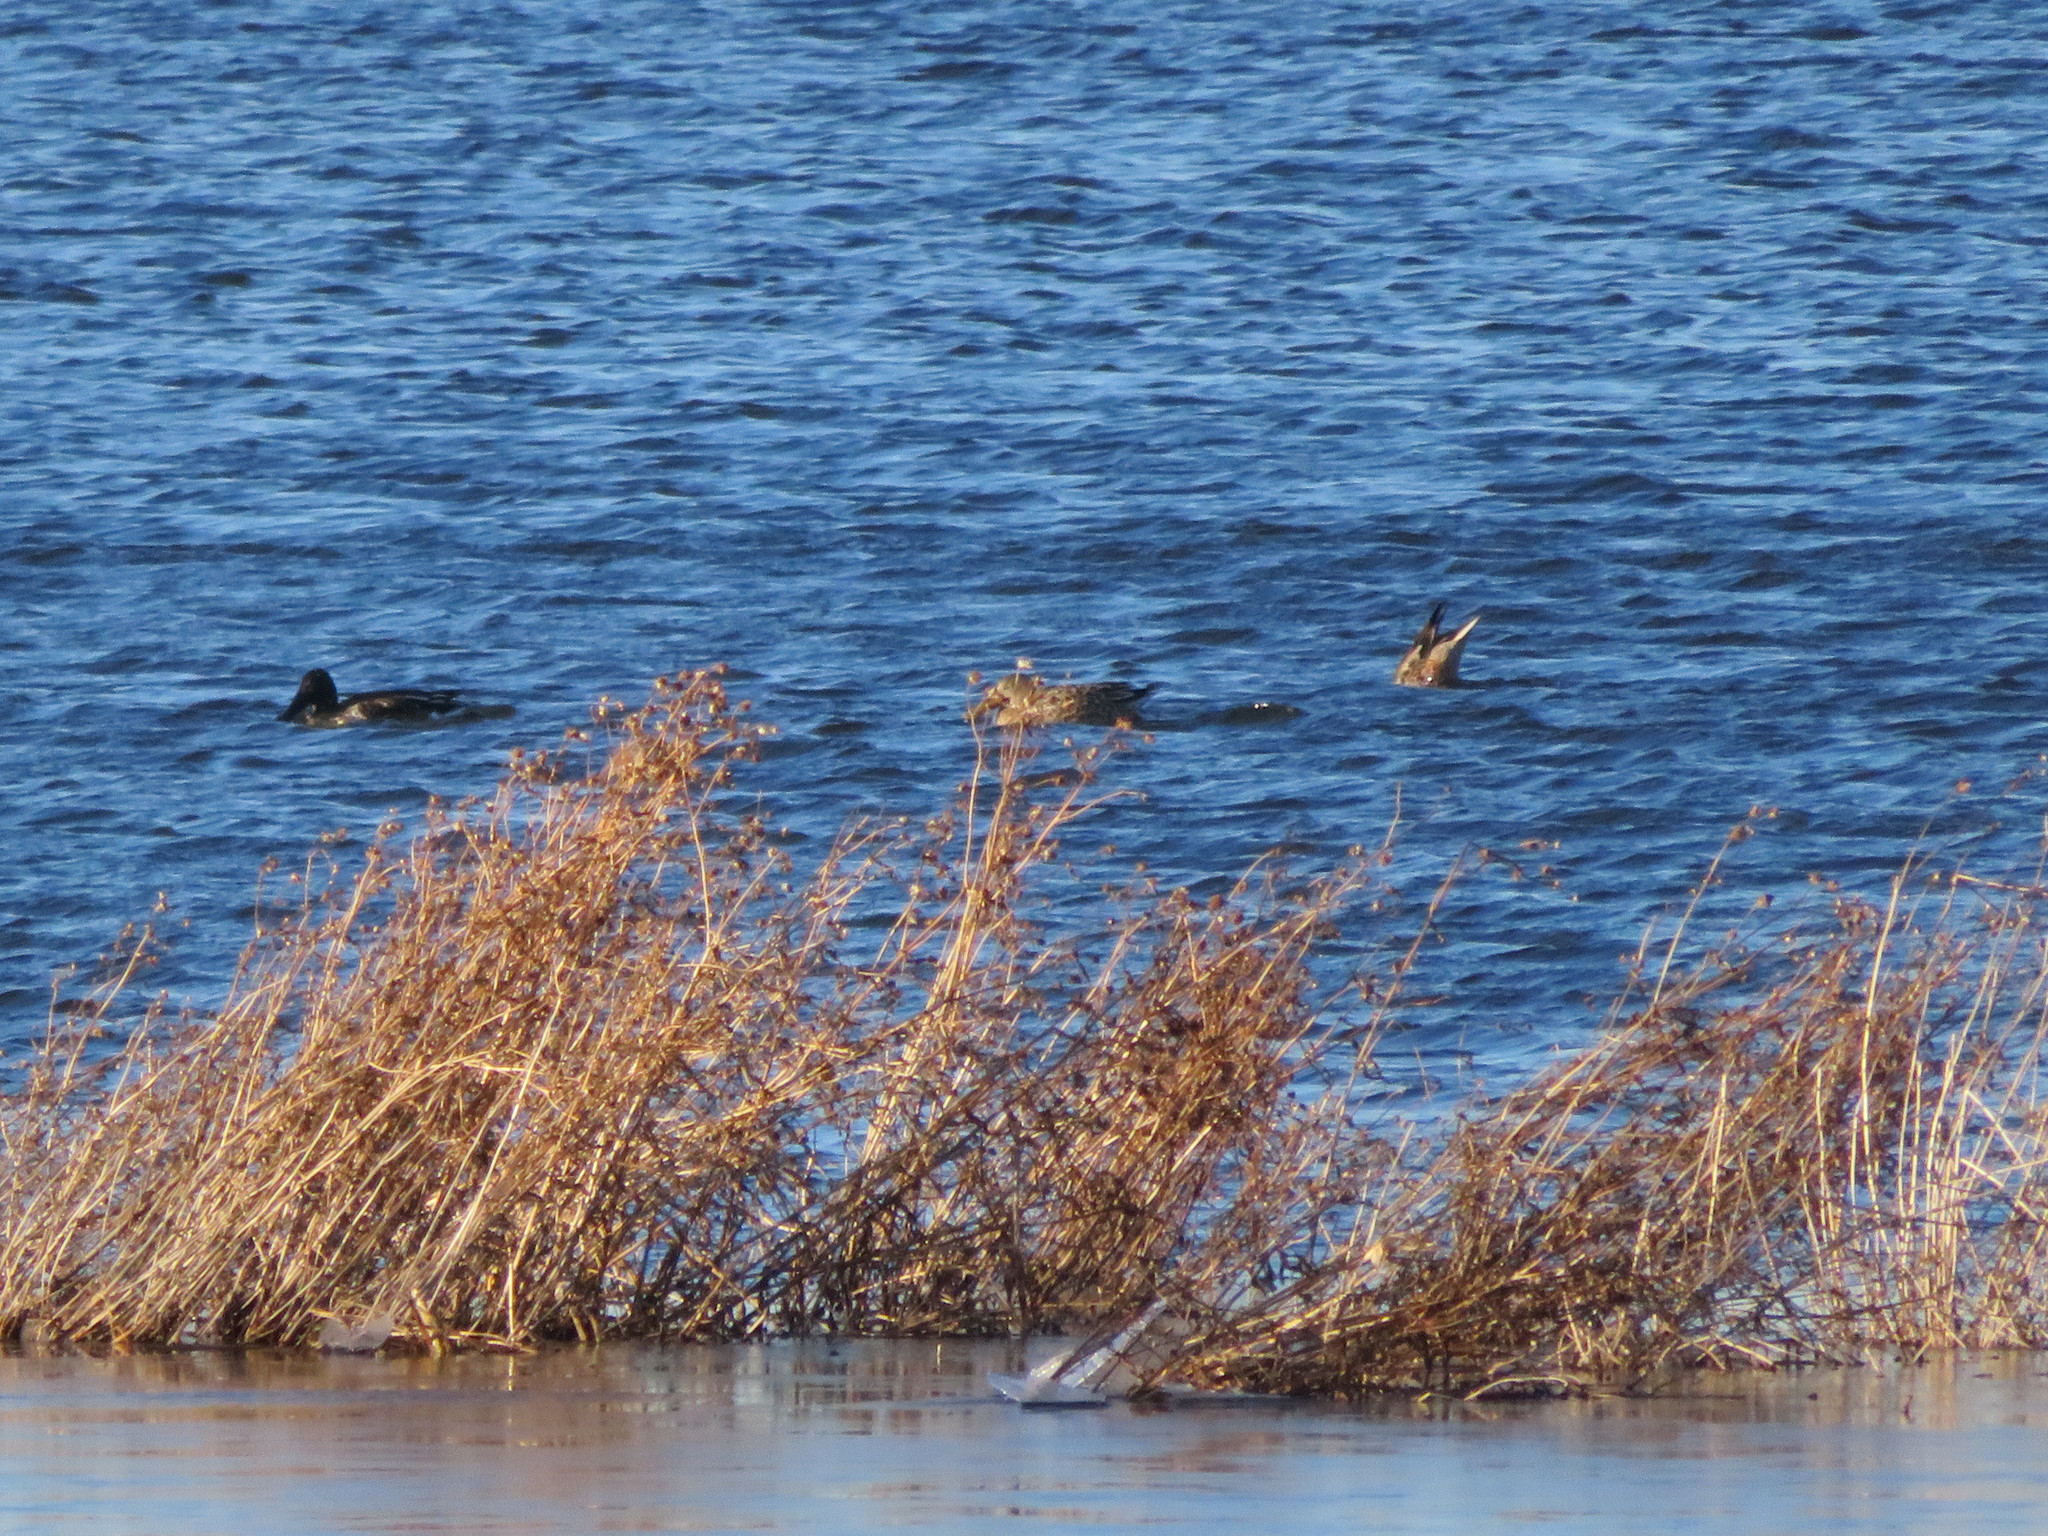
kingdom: Animalia
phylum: Chordata
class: Aves
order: Anseriformes
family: Anatidae
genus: Spatula
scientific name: Spatula clypeata
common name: Northern shoveler
